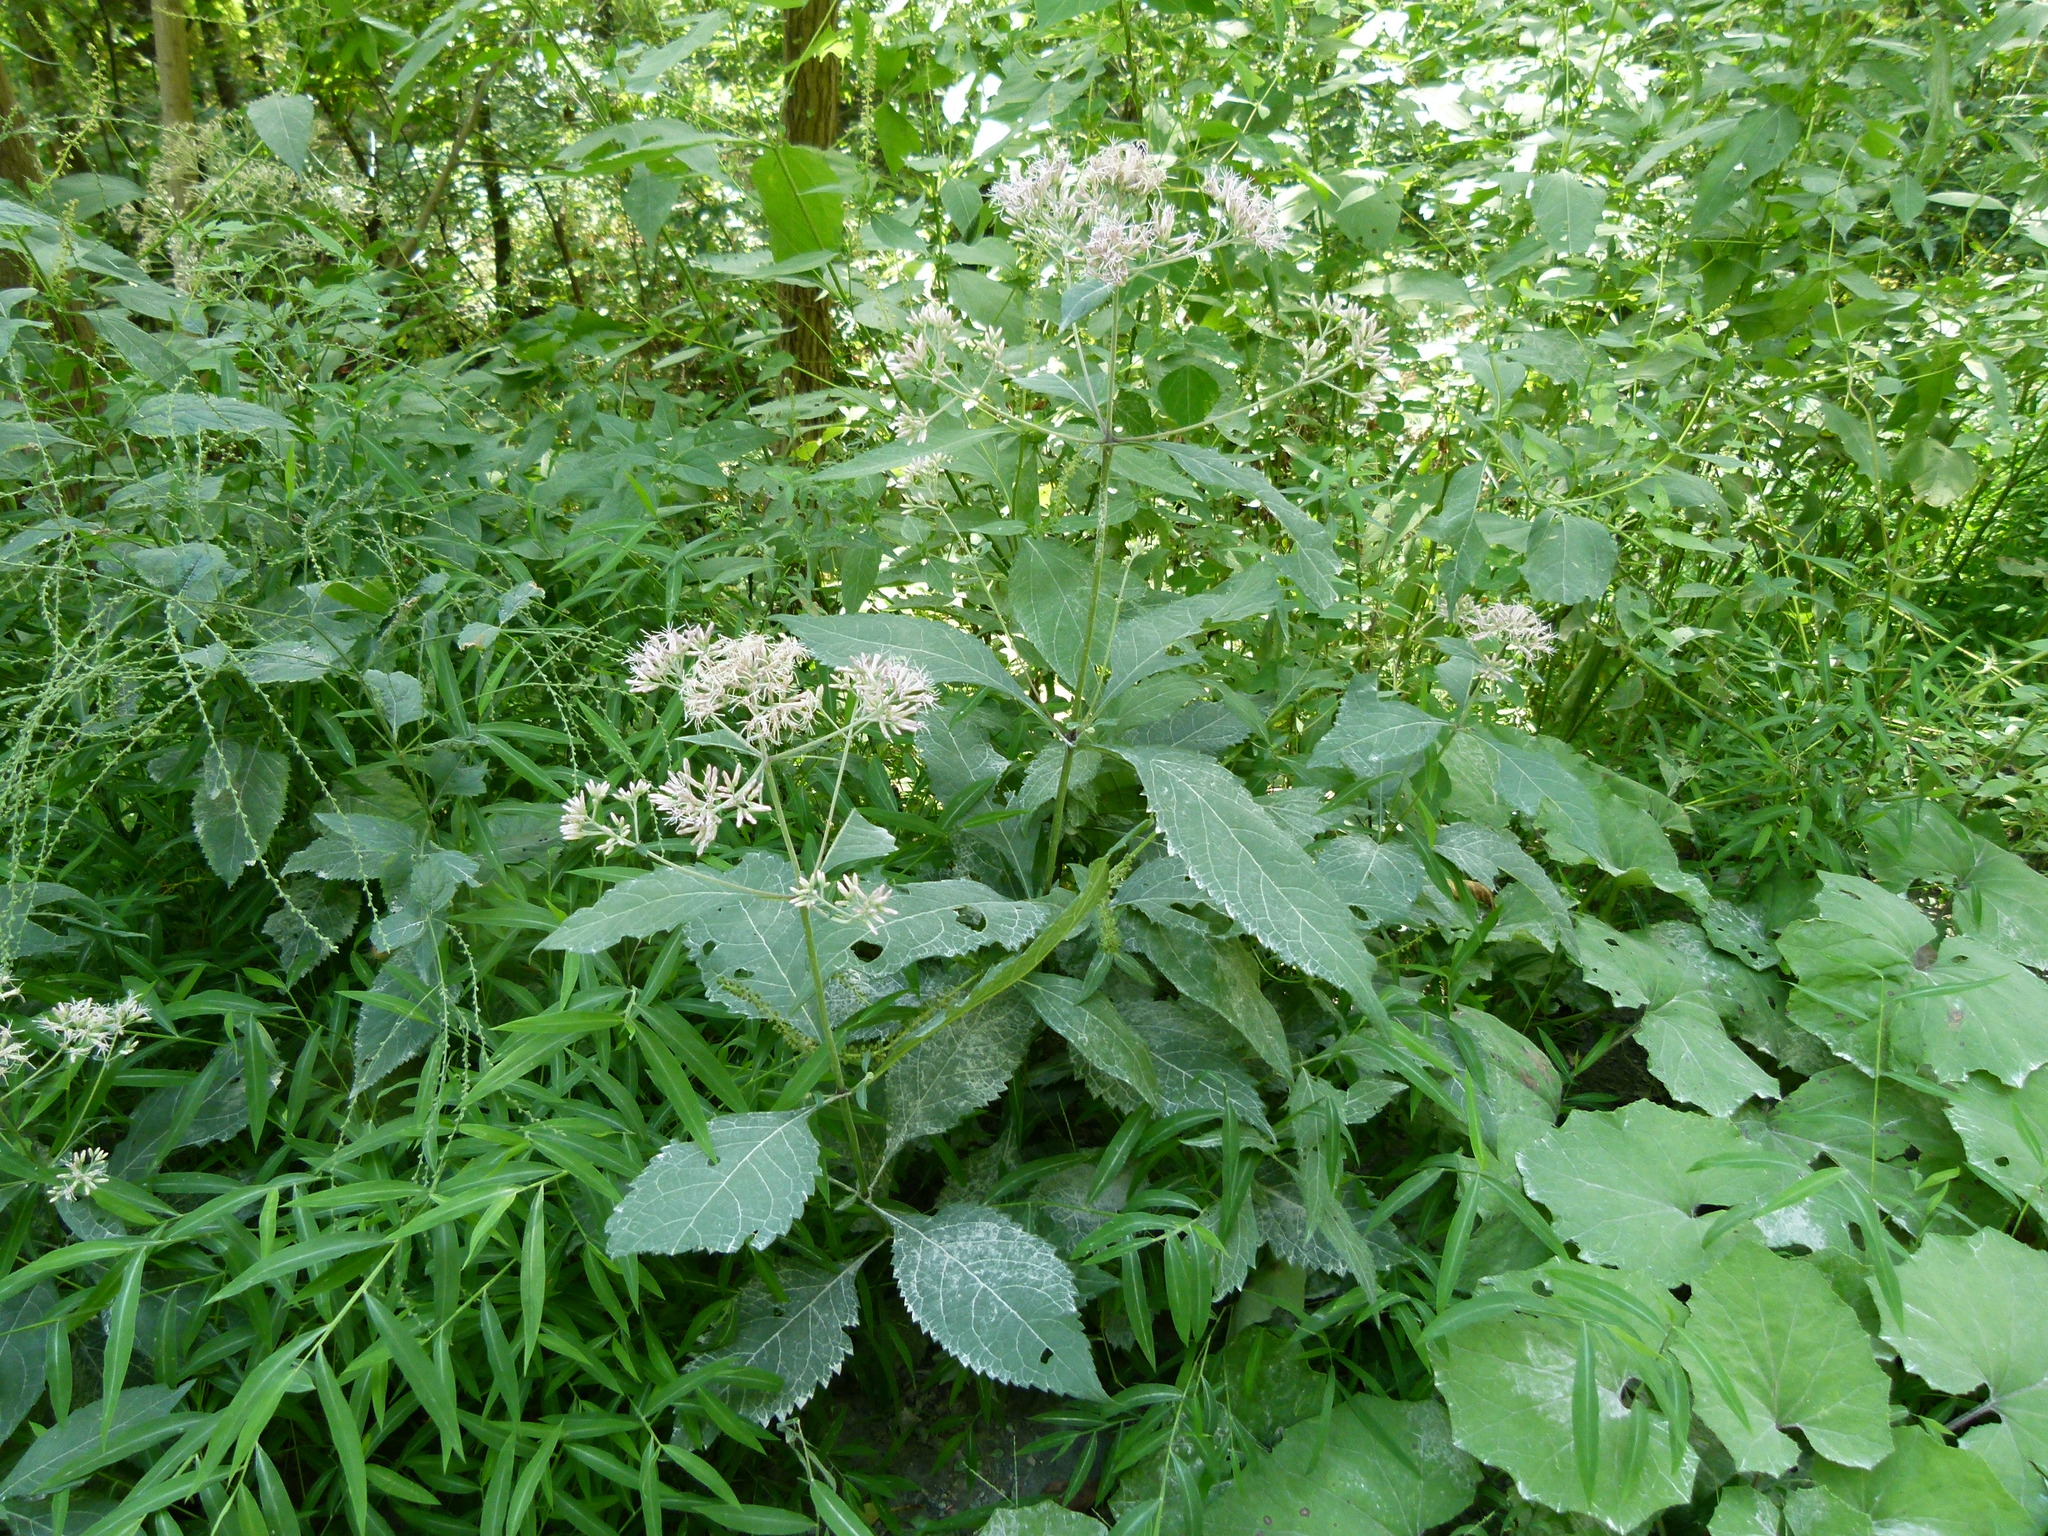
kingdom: Plantae
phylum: Tracheophyta
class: Magnoliopsida
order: Asterales
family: Asteraceae
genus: Eutrochium
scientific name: Eutrochium purpureum
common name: Gravelroot
